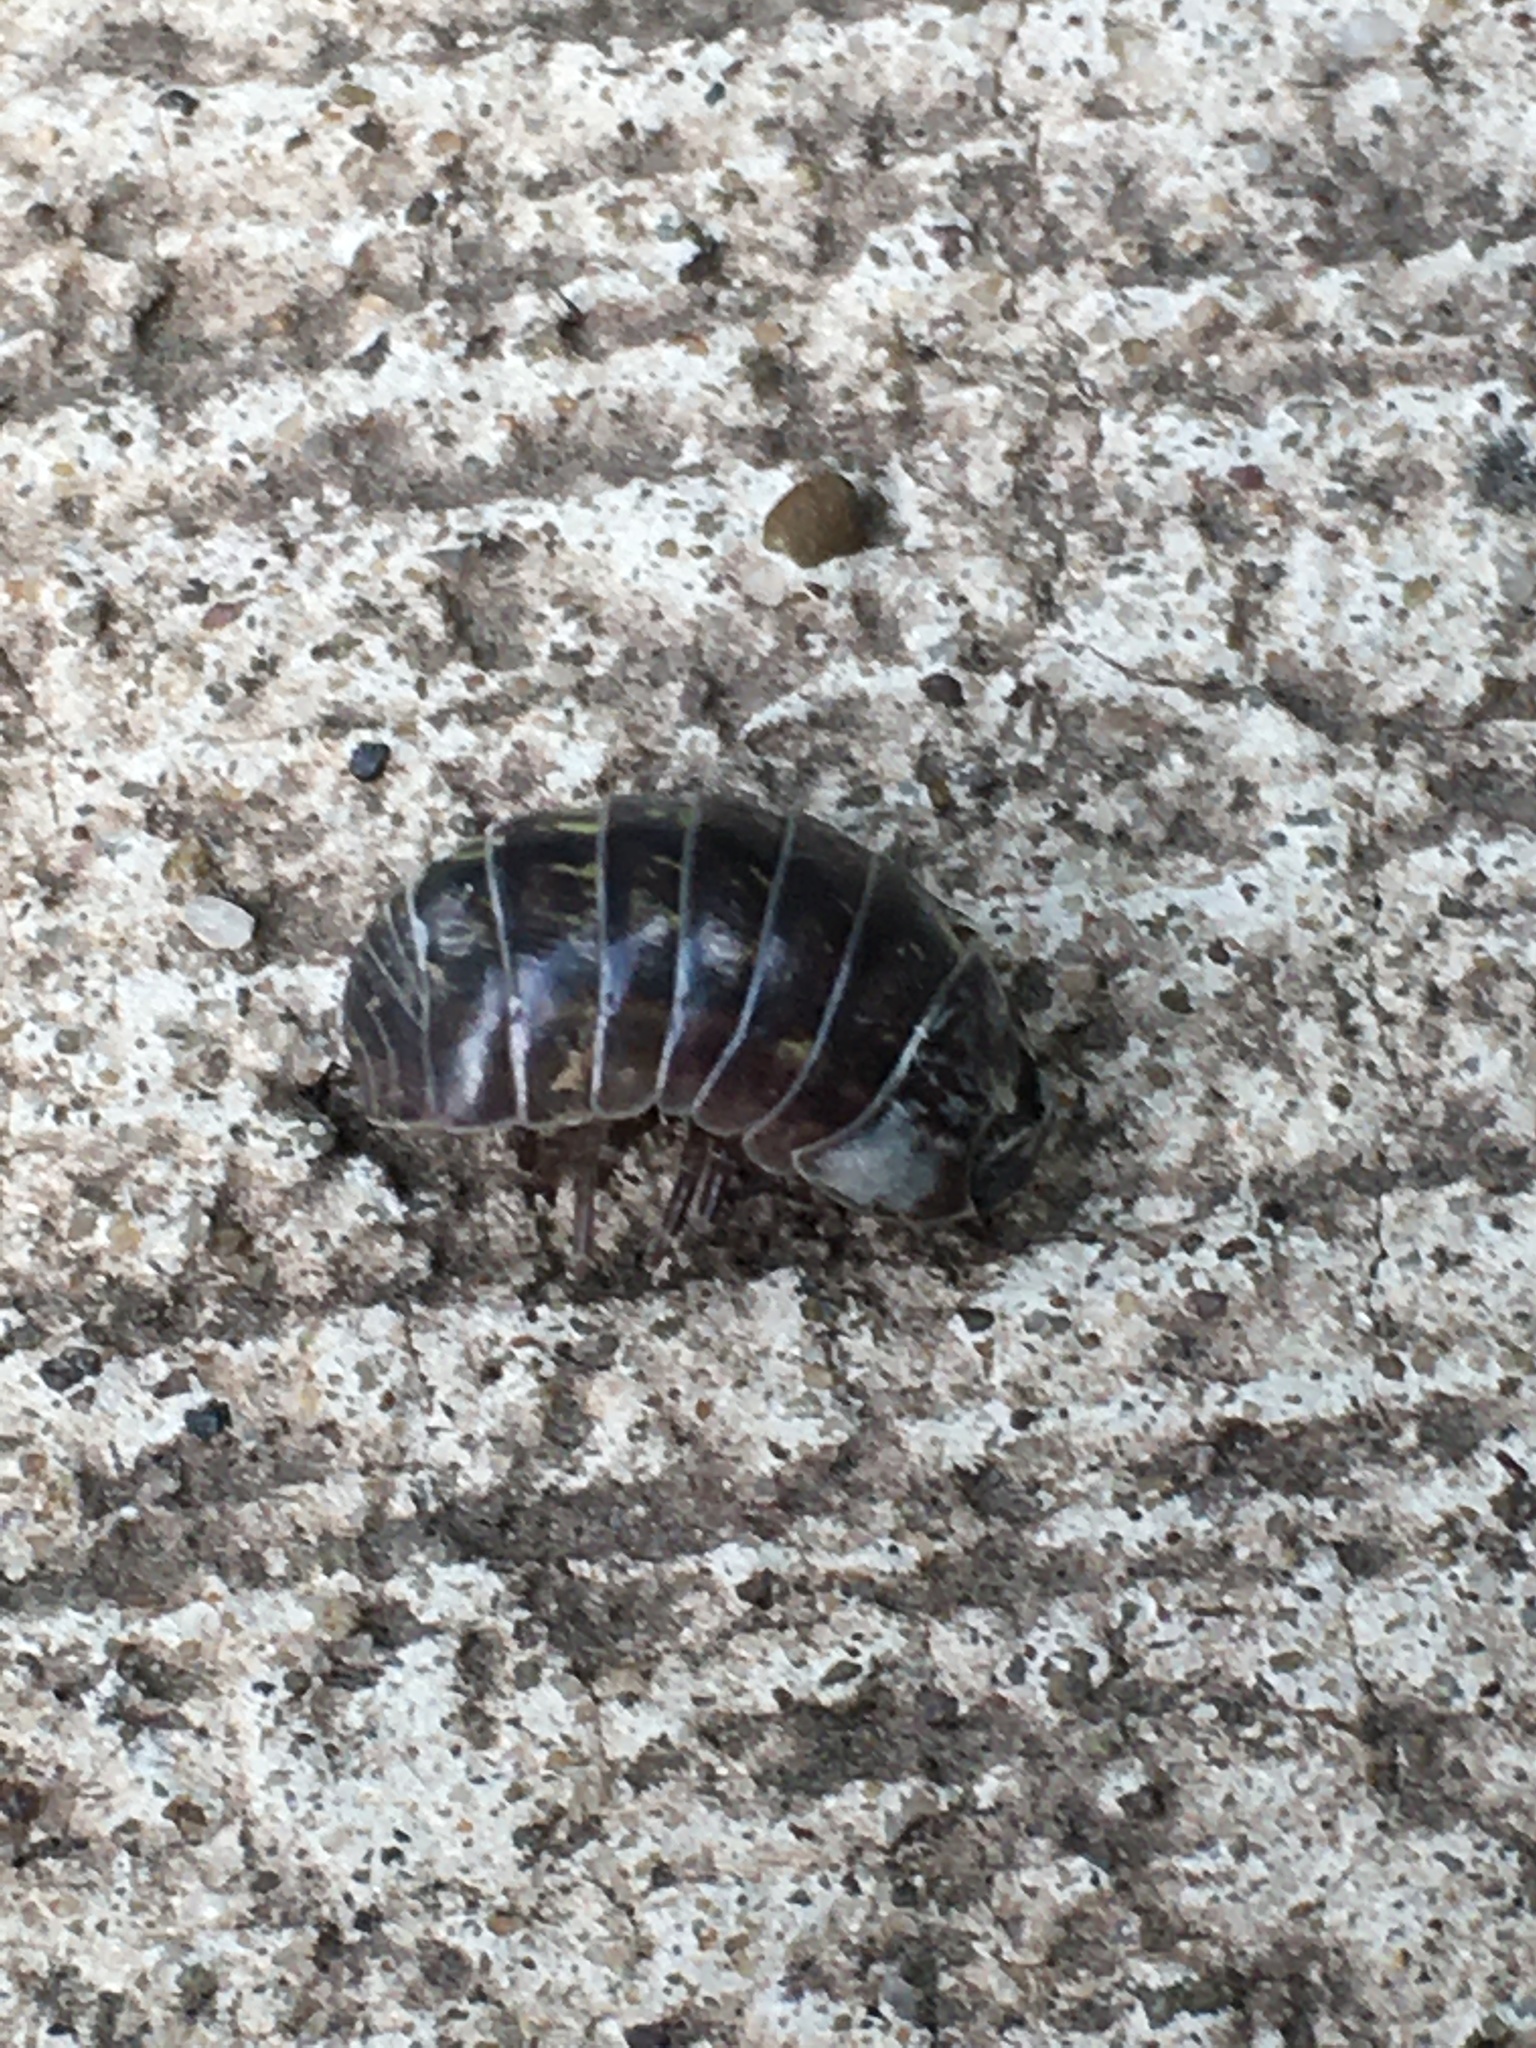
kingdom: Animalia
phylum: Arthropoda
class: Malacostraca
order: Isopoda
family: Armadillidiidae
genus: Armadillidium
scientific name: Armadillidium vulgare
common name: Common pill woodlouse
